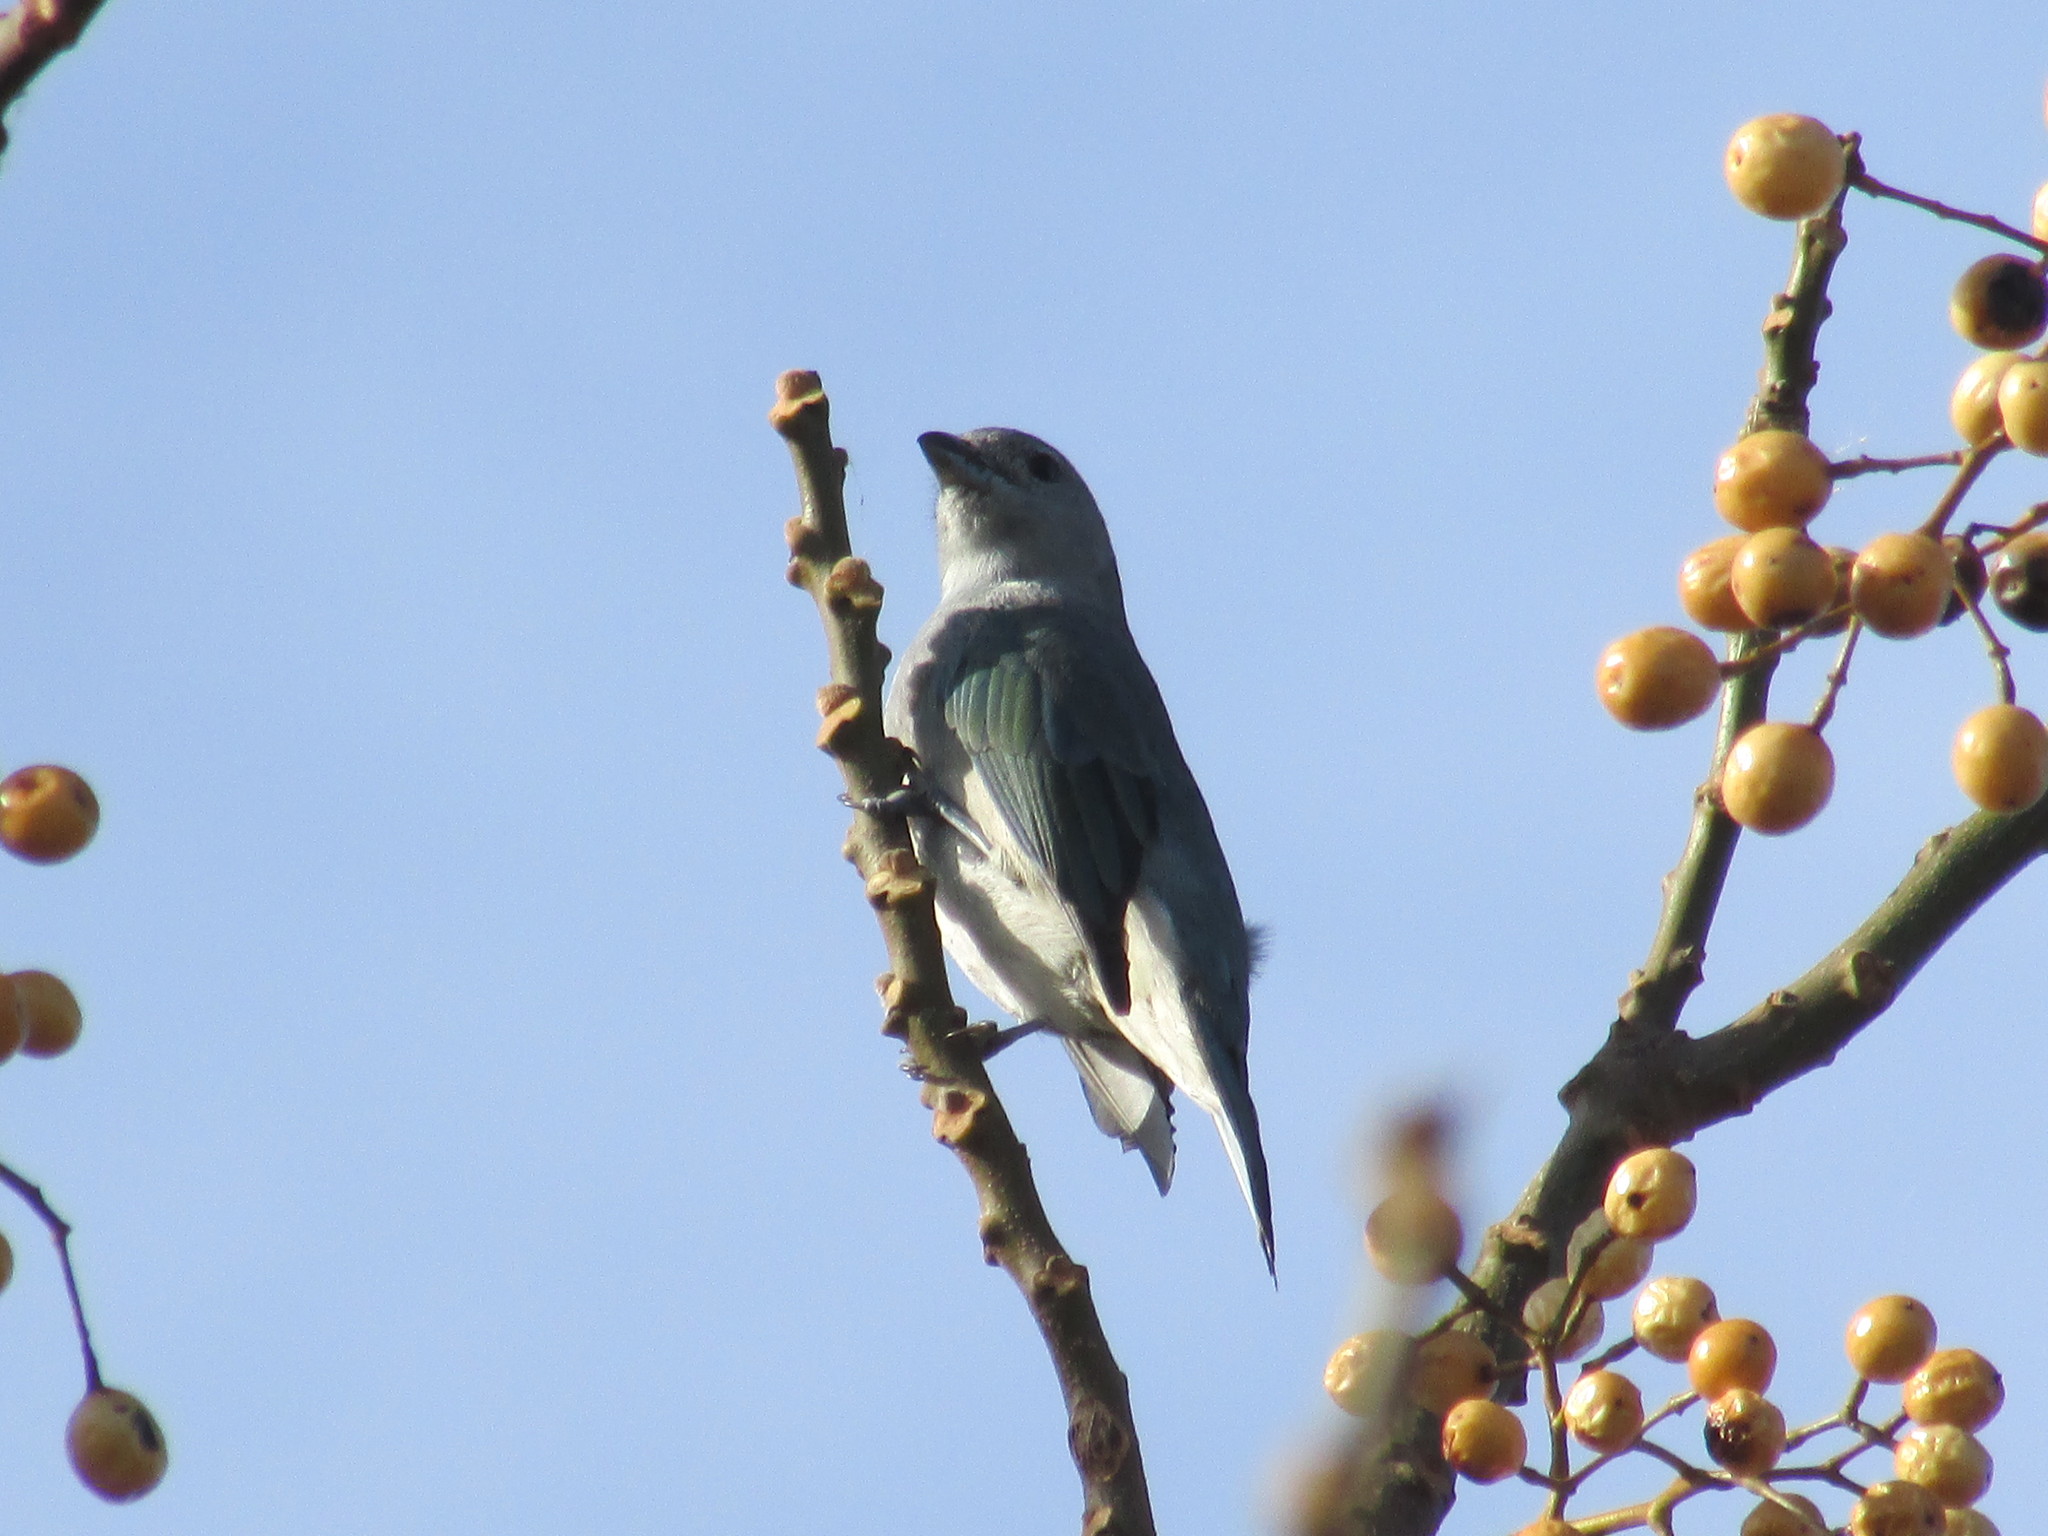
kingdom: Animalia
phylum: Chordata
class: Aves
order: Passeriformes
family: Thraupidae
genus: Thraupis
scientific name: Thraupis sayaca
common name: Sayaca tanager
